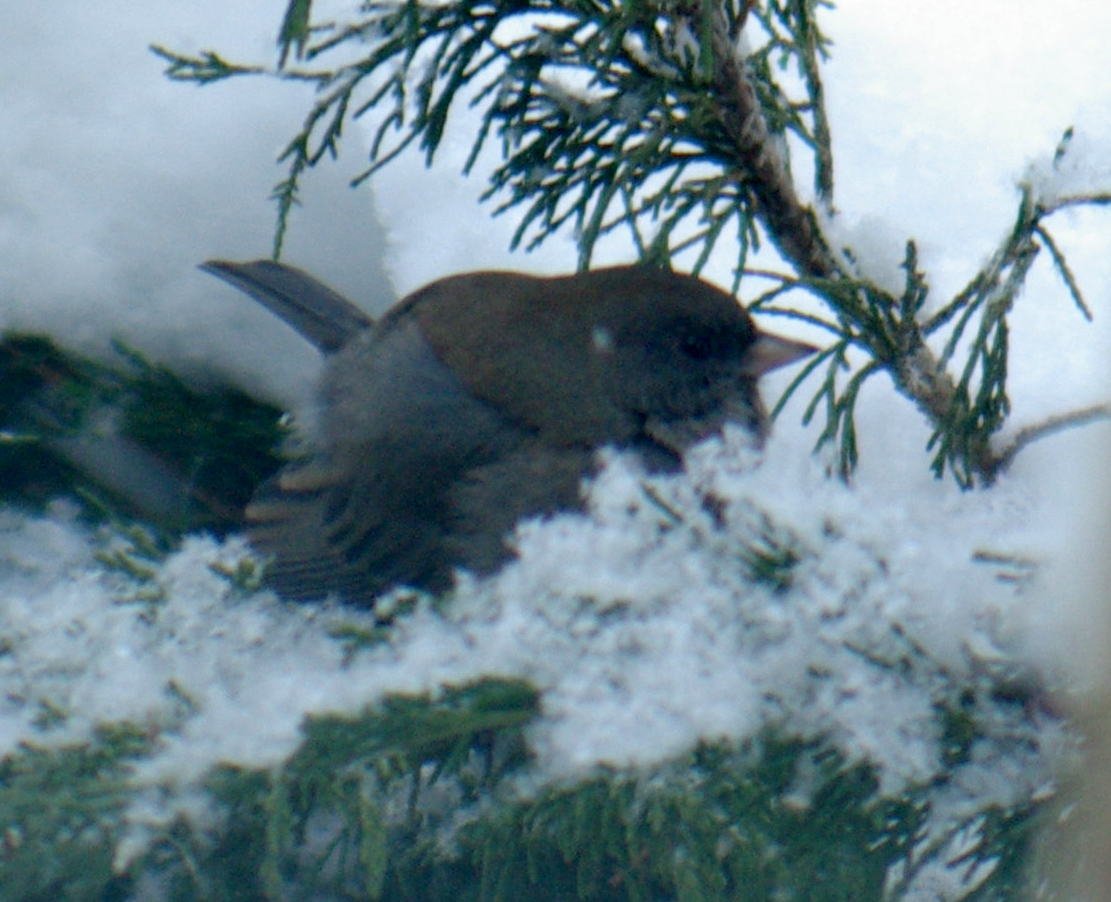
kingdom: Animalia
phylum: Chordata
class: Aves
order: Passeriformes
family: Passerellidae
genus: Junco
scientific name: Junco hyemalis
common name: Dark-eyed junco
